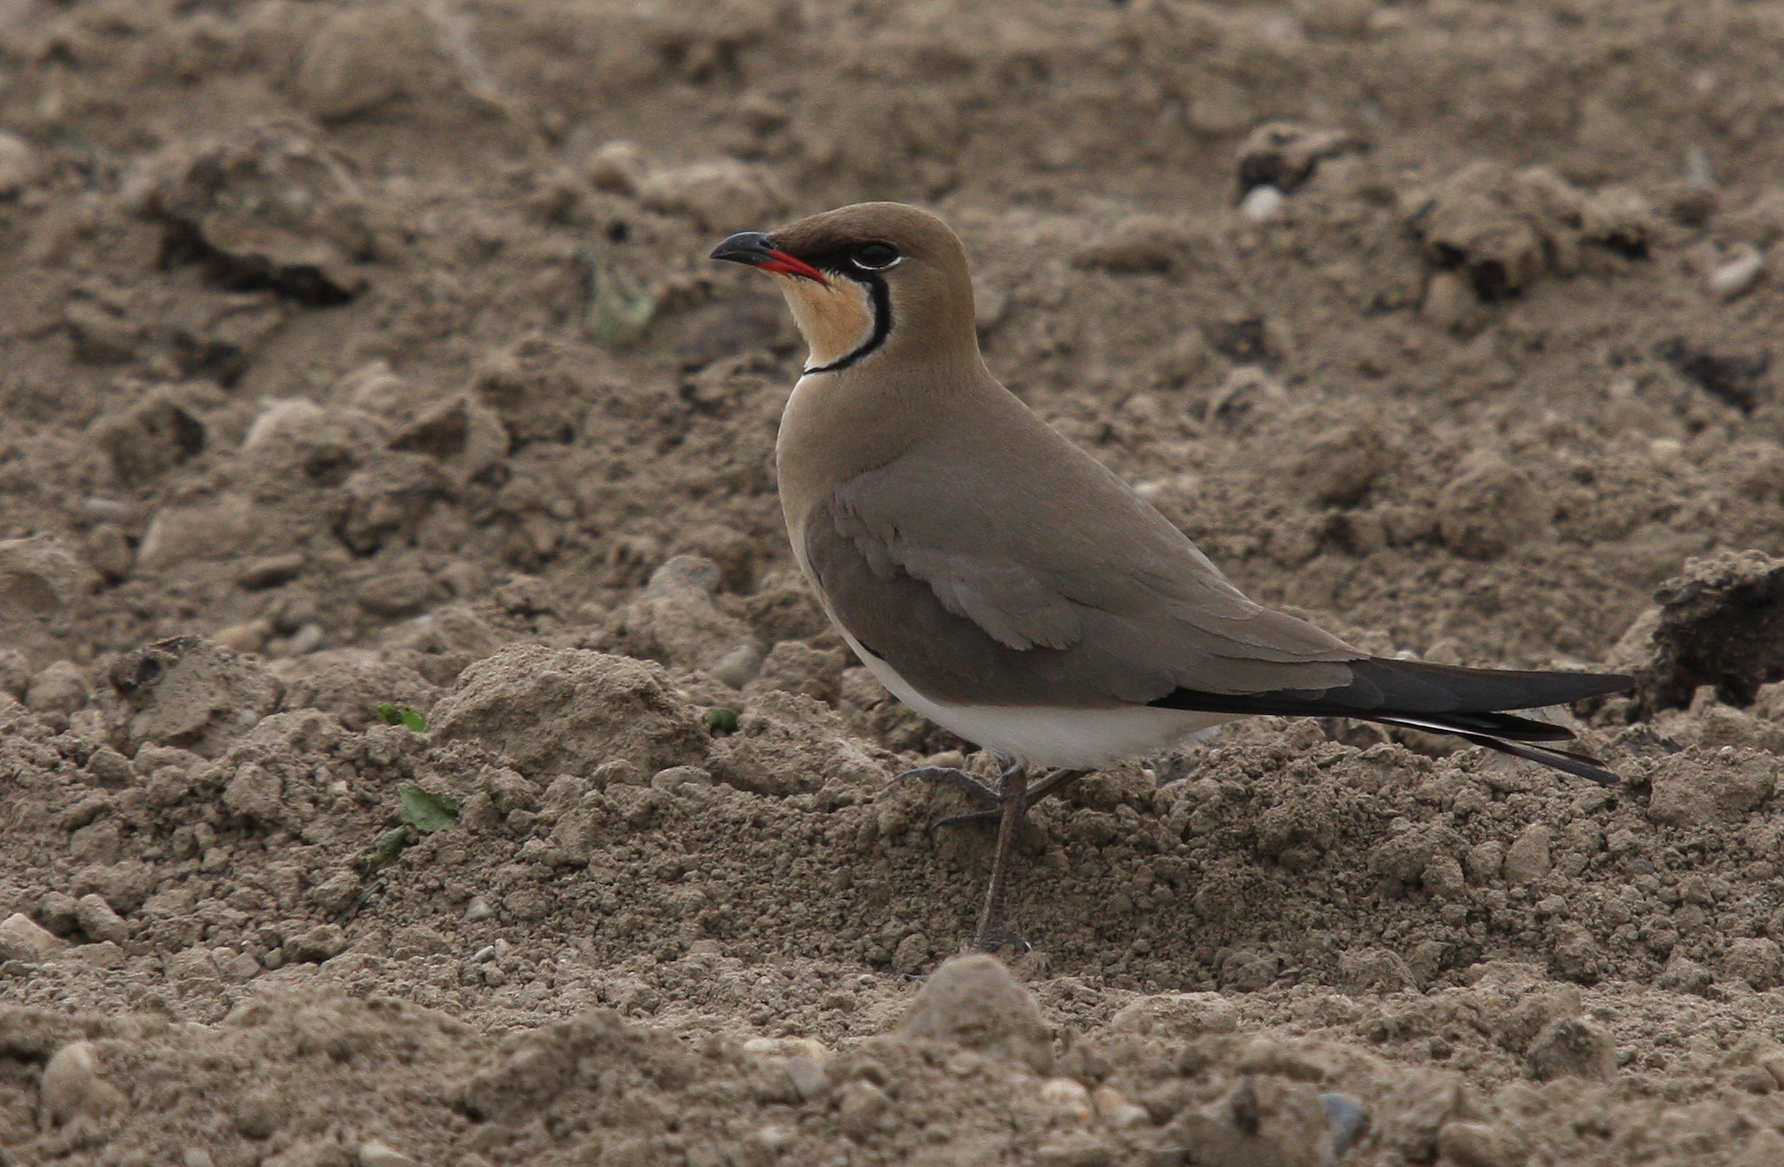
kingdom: Animalia
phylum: Chordata
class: Aves
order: Charadriiformes
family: Glareolidae
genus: Glareola
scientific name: Glareola pratincola
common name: Collared pratincole
